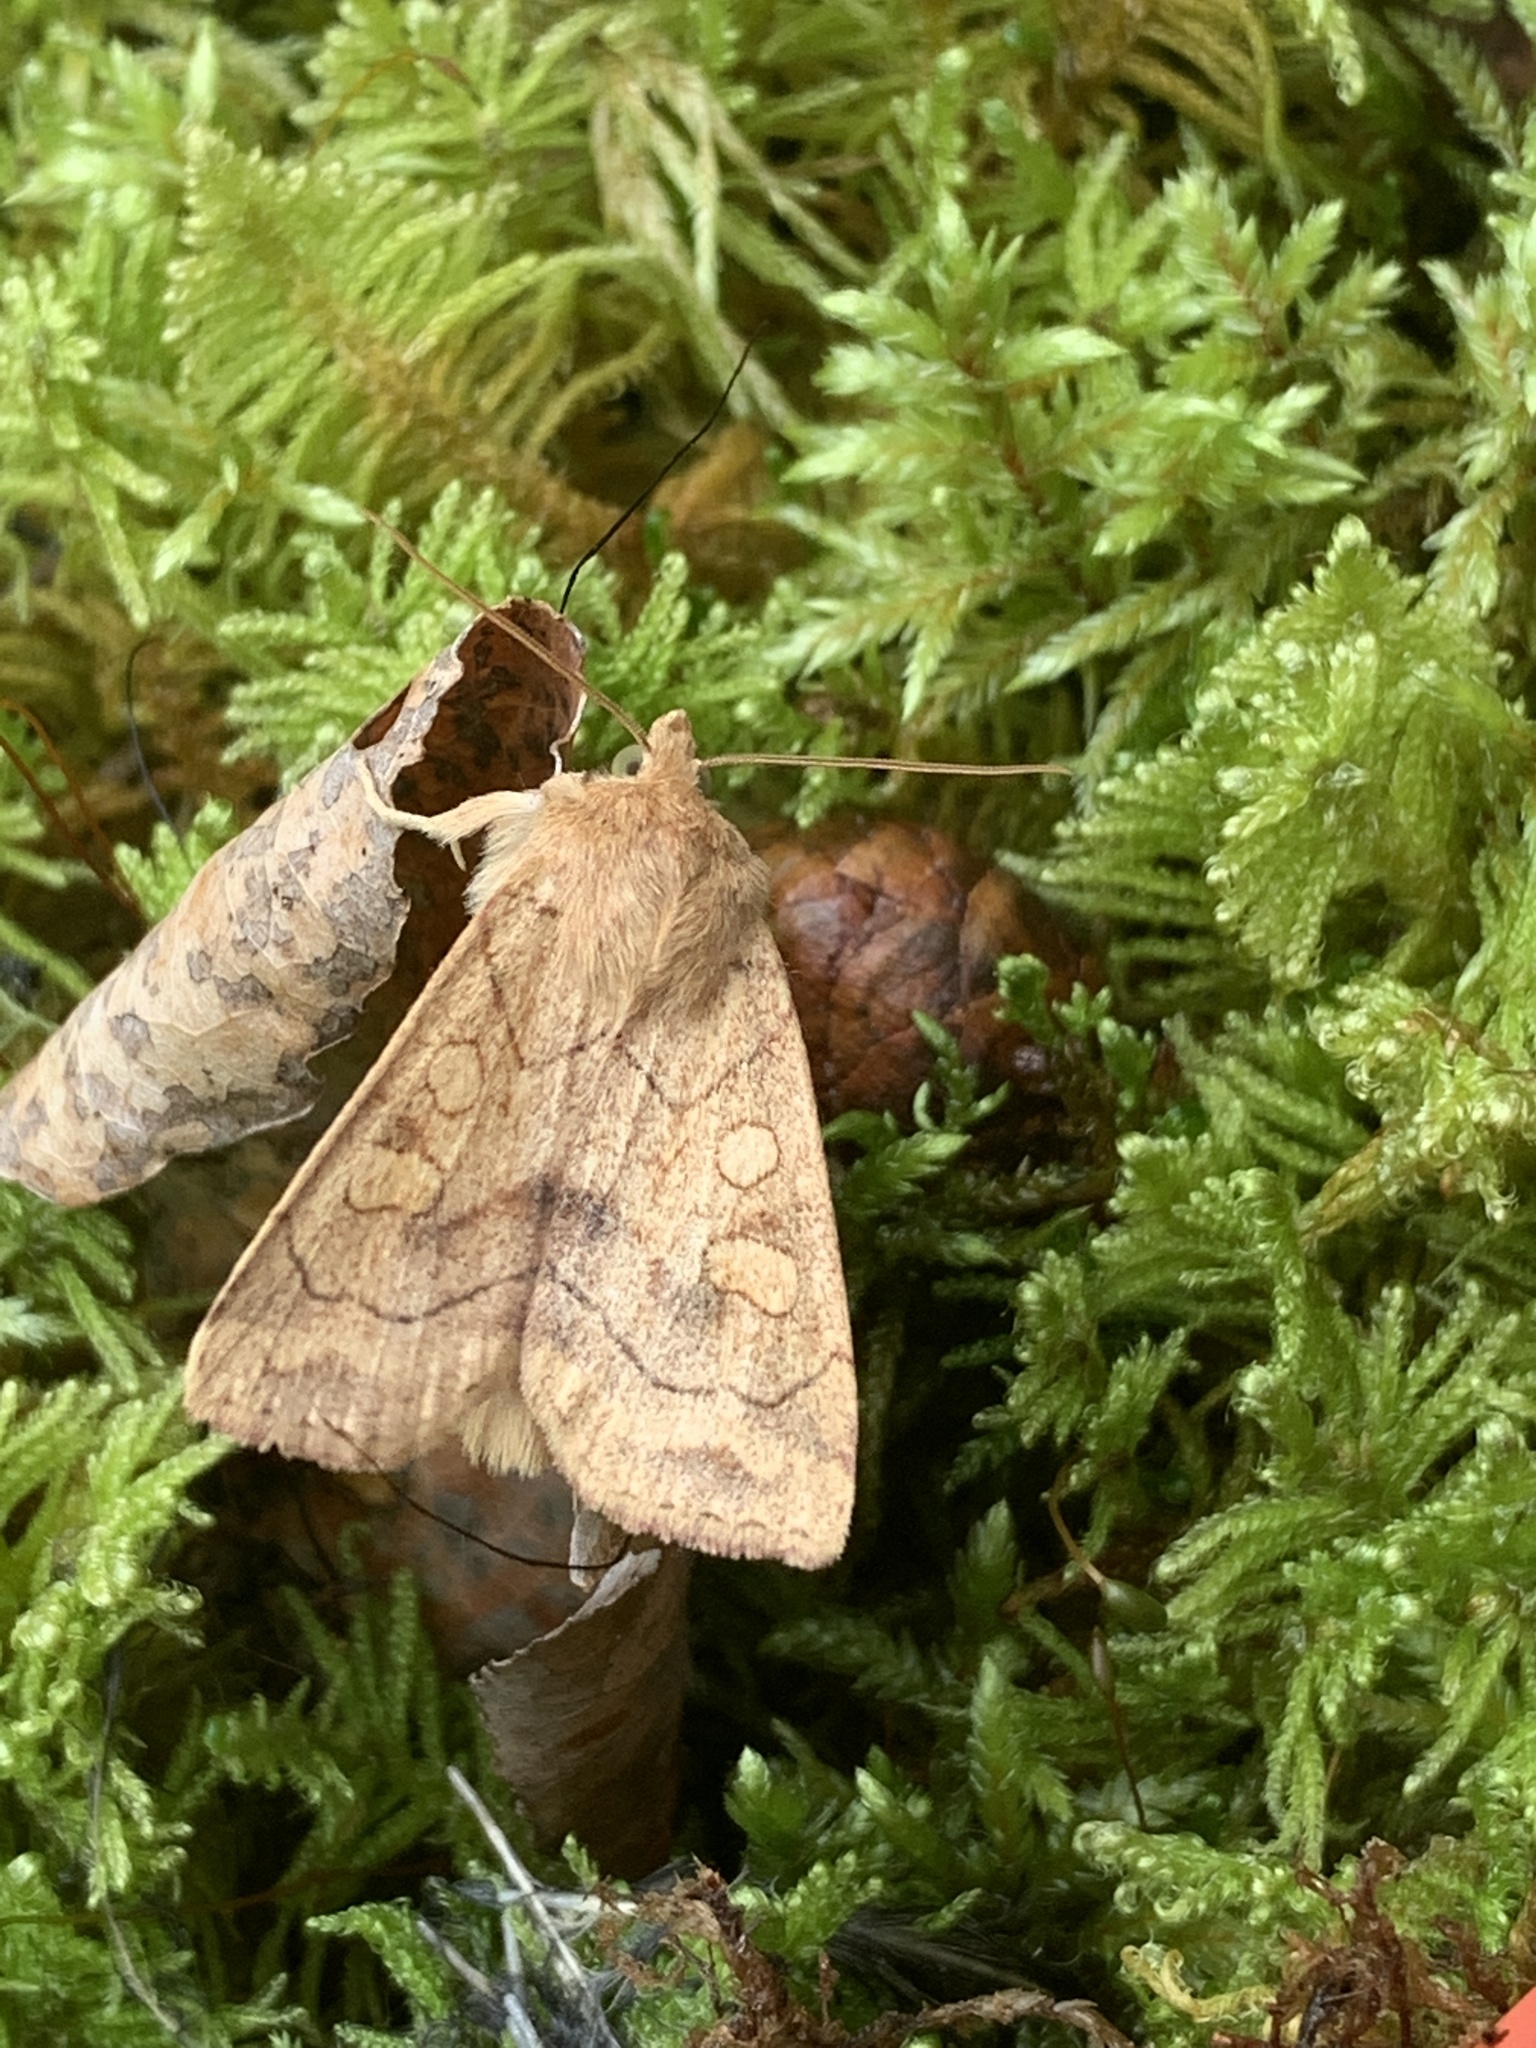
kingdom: Animalia
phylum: Arthropoda
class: Insecta
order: Lepidoptera
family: Noctuidae
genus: Enargia
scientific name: Enargia decolor
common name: Aspen twoleaf tier moth
